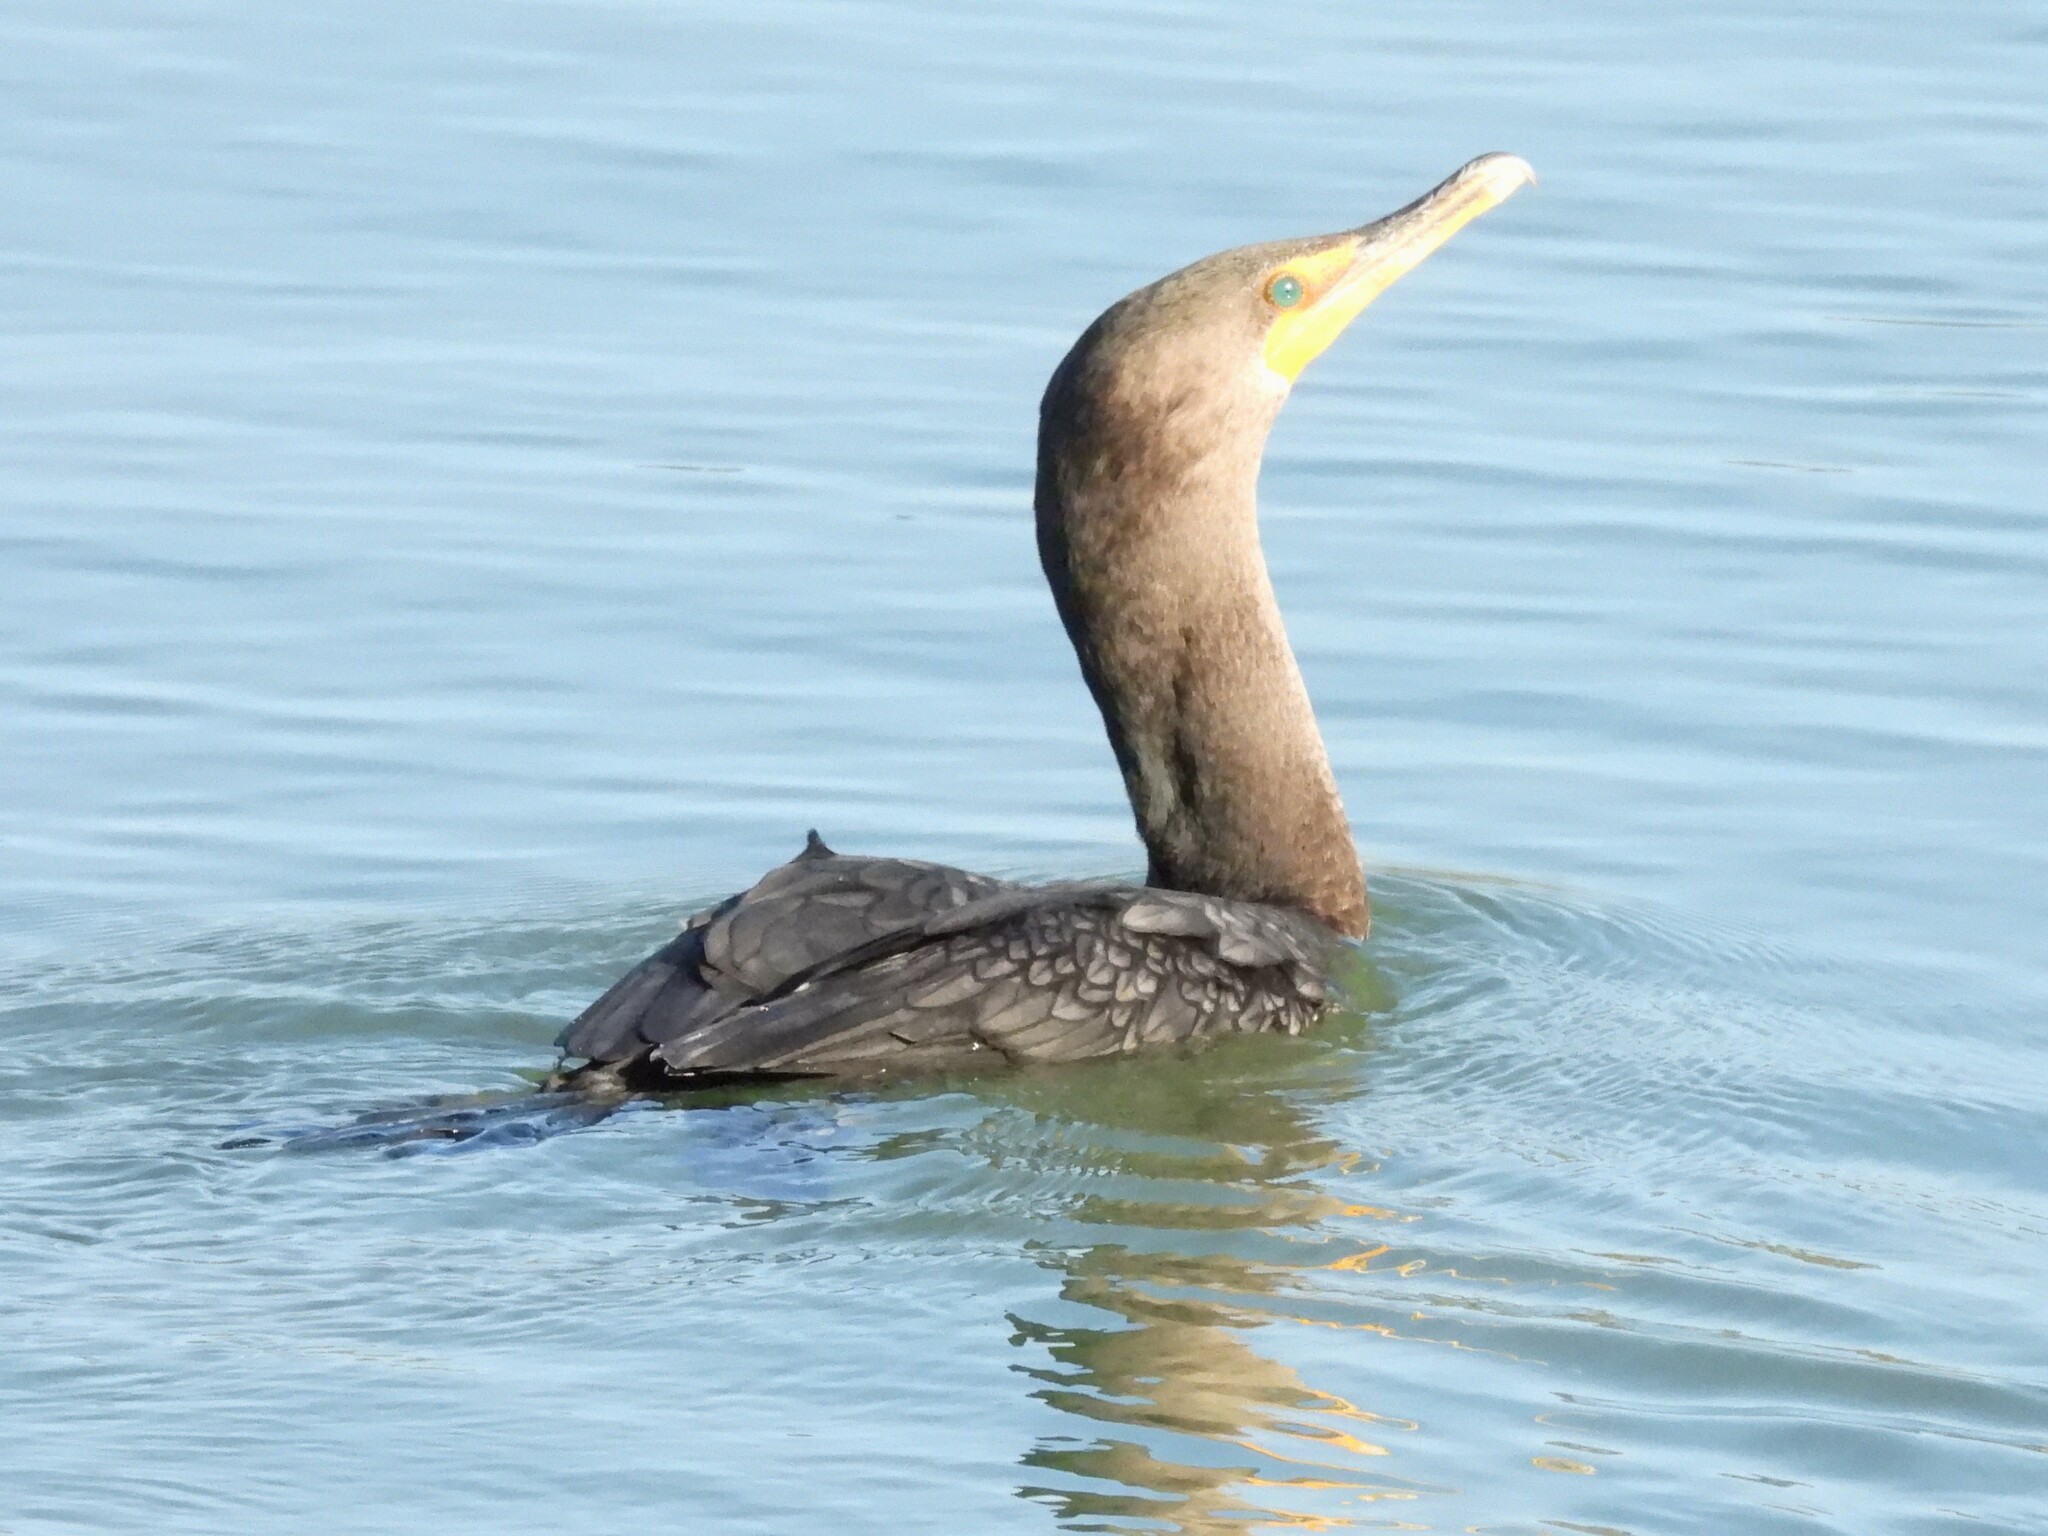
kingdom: Animalia
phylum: Chordata
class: Aves
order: Suliformes
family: Phalacrocoracidae
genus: Phalacrocorax
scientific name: Phalacrocorax auritus
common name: Double-crested cormorant
